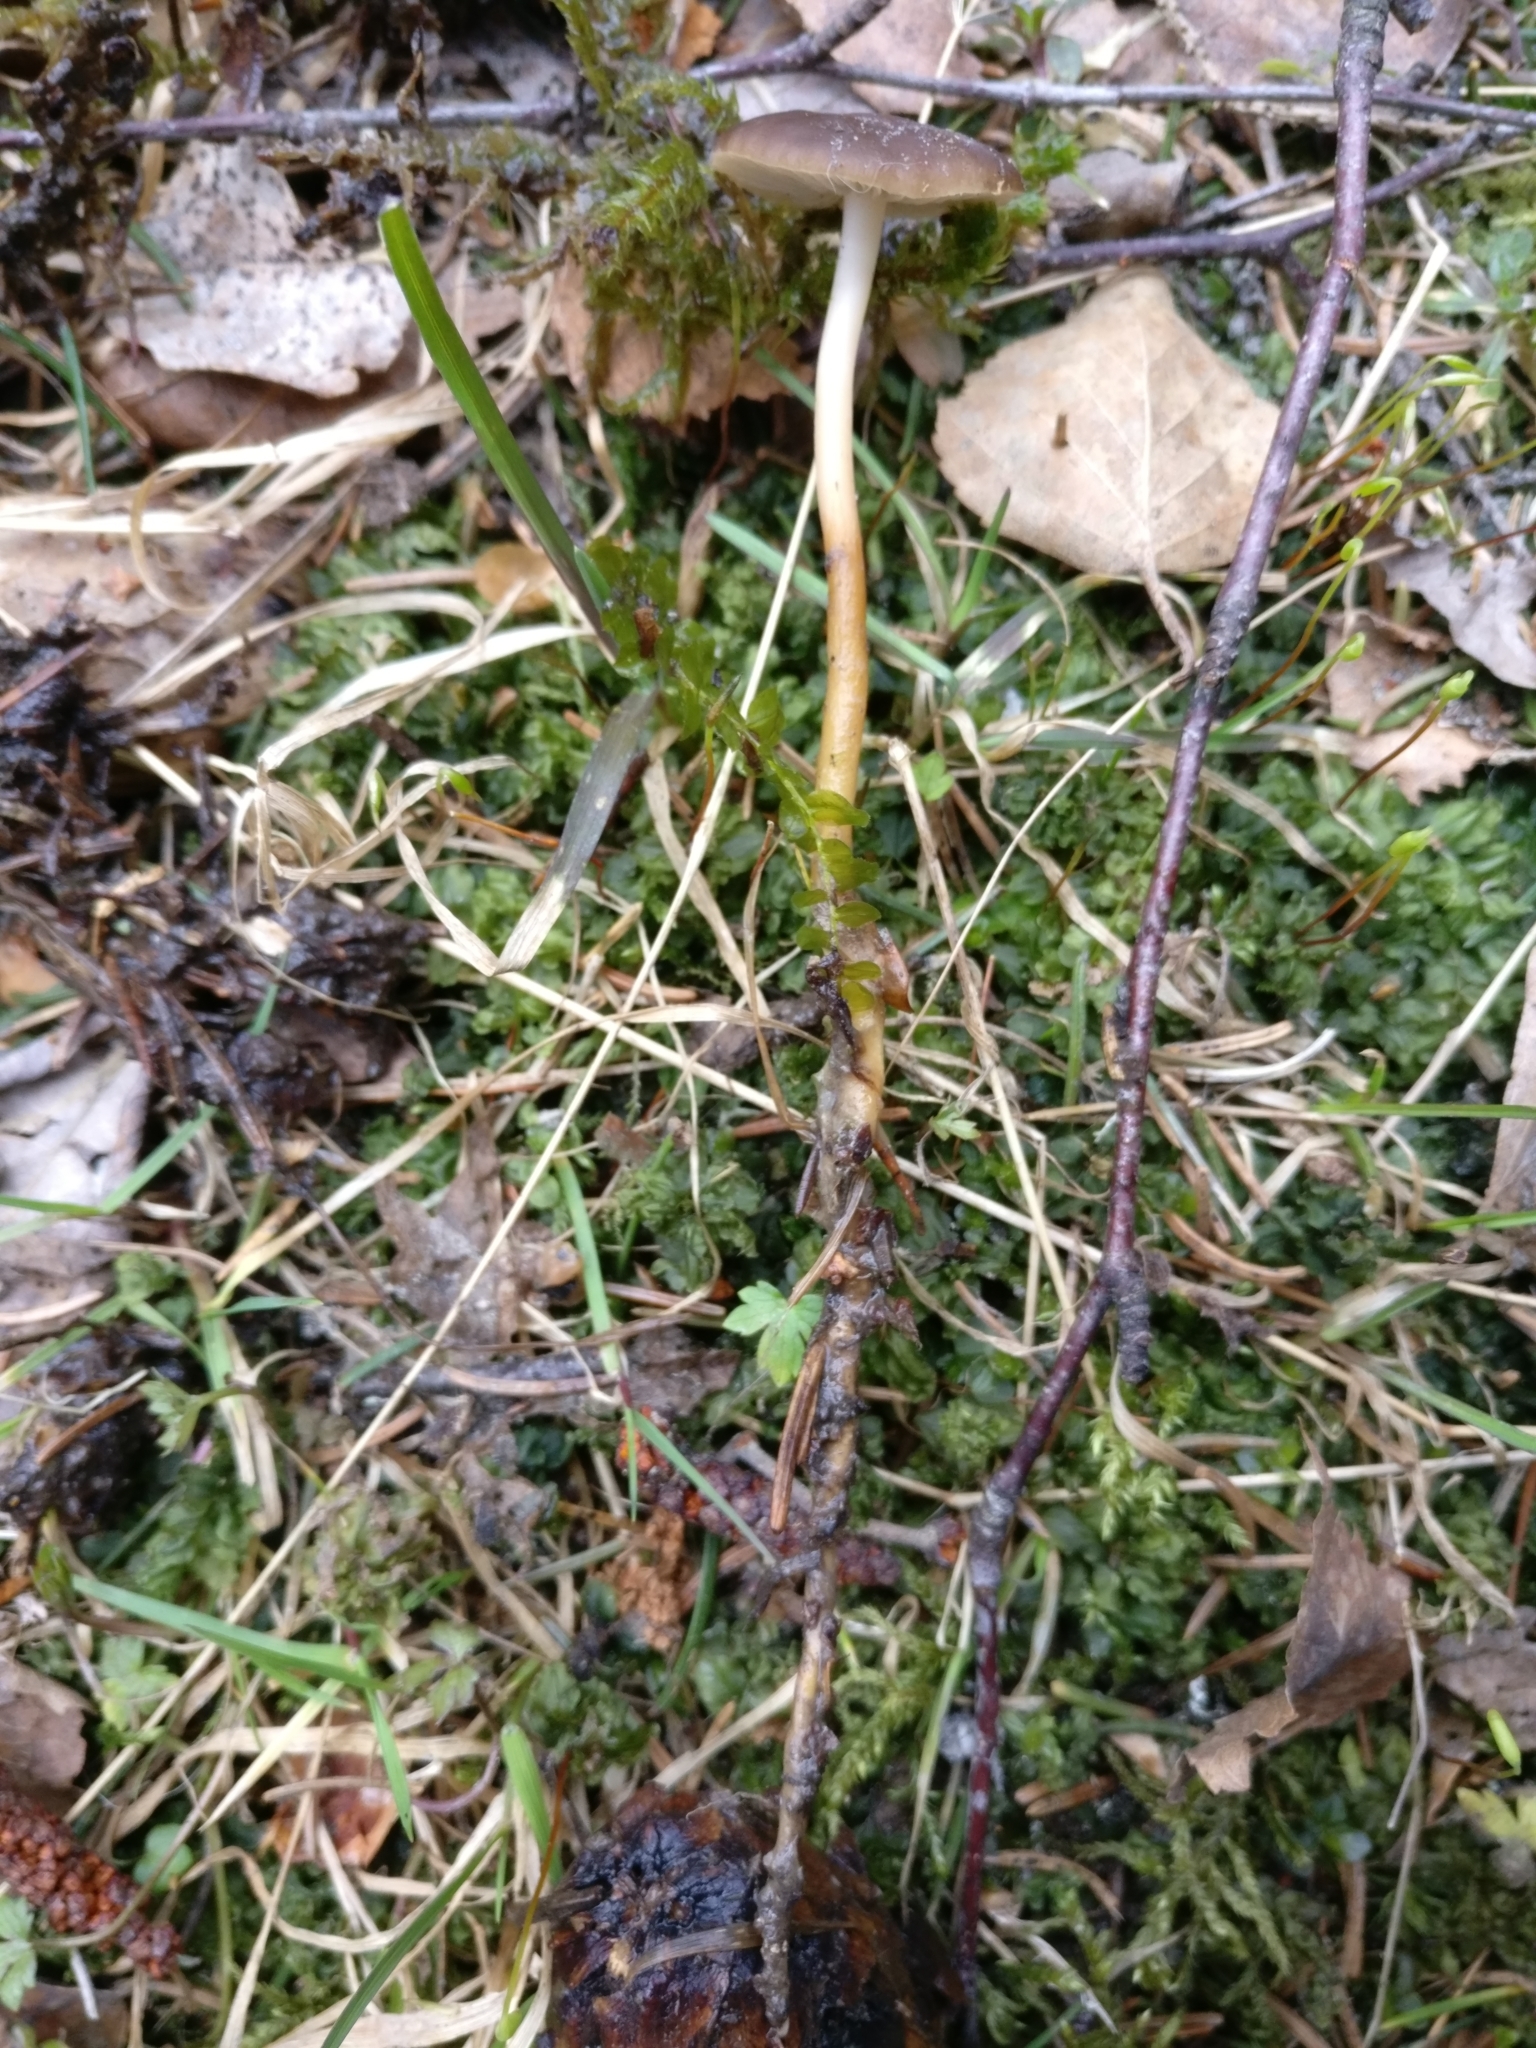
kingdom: Fungi
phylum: Basidiomycota
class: Agaricomycetes
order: Agaricales
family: Physalacriaceae
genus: Strobilurus
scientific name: Strobilurus esculentus
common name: Sprucecone cap
